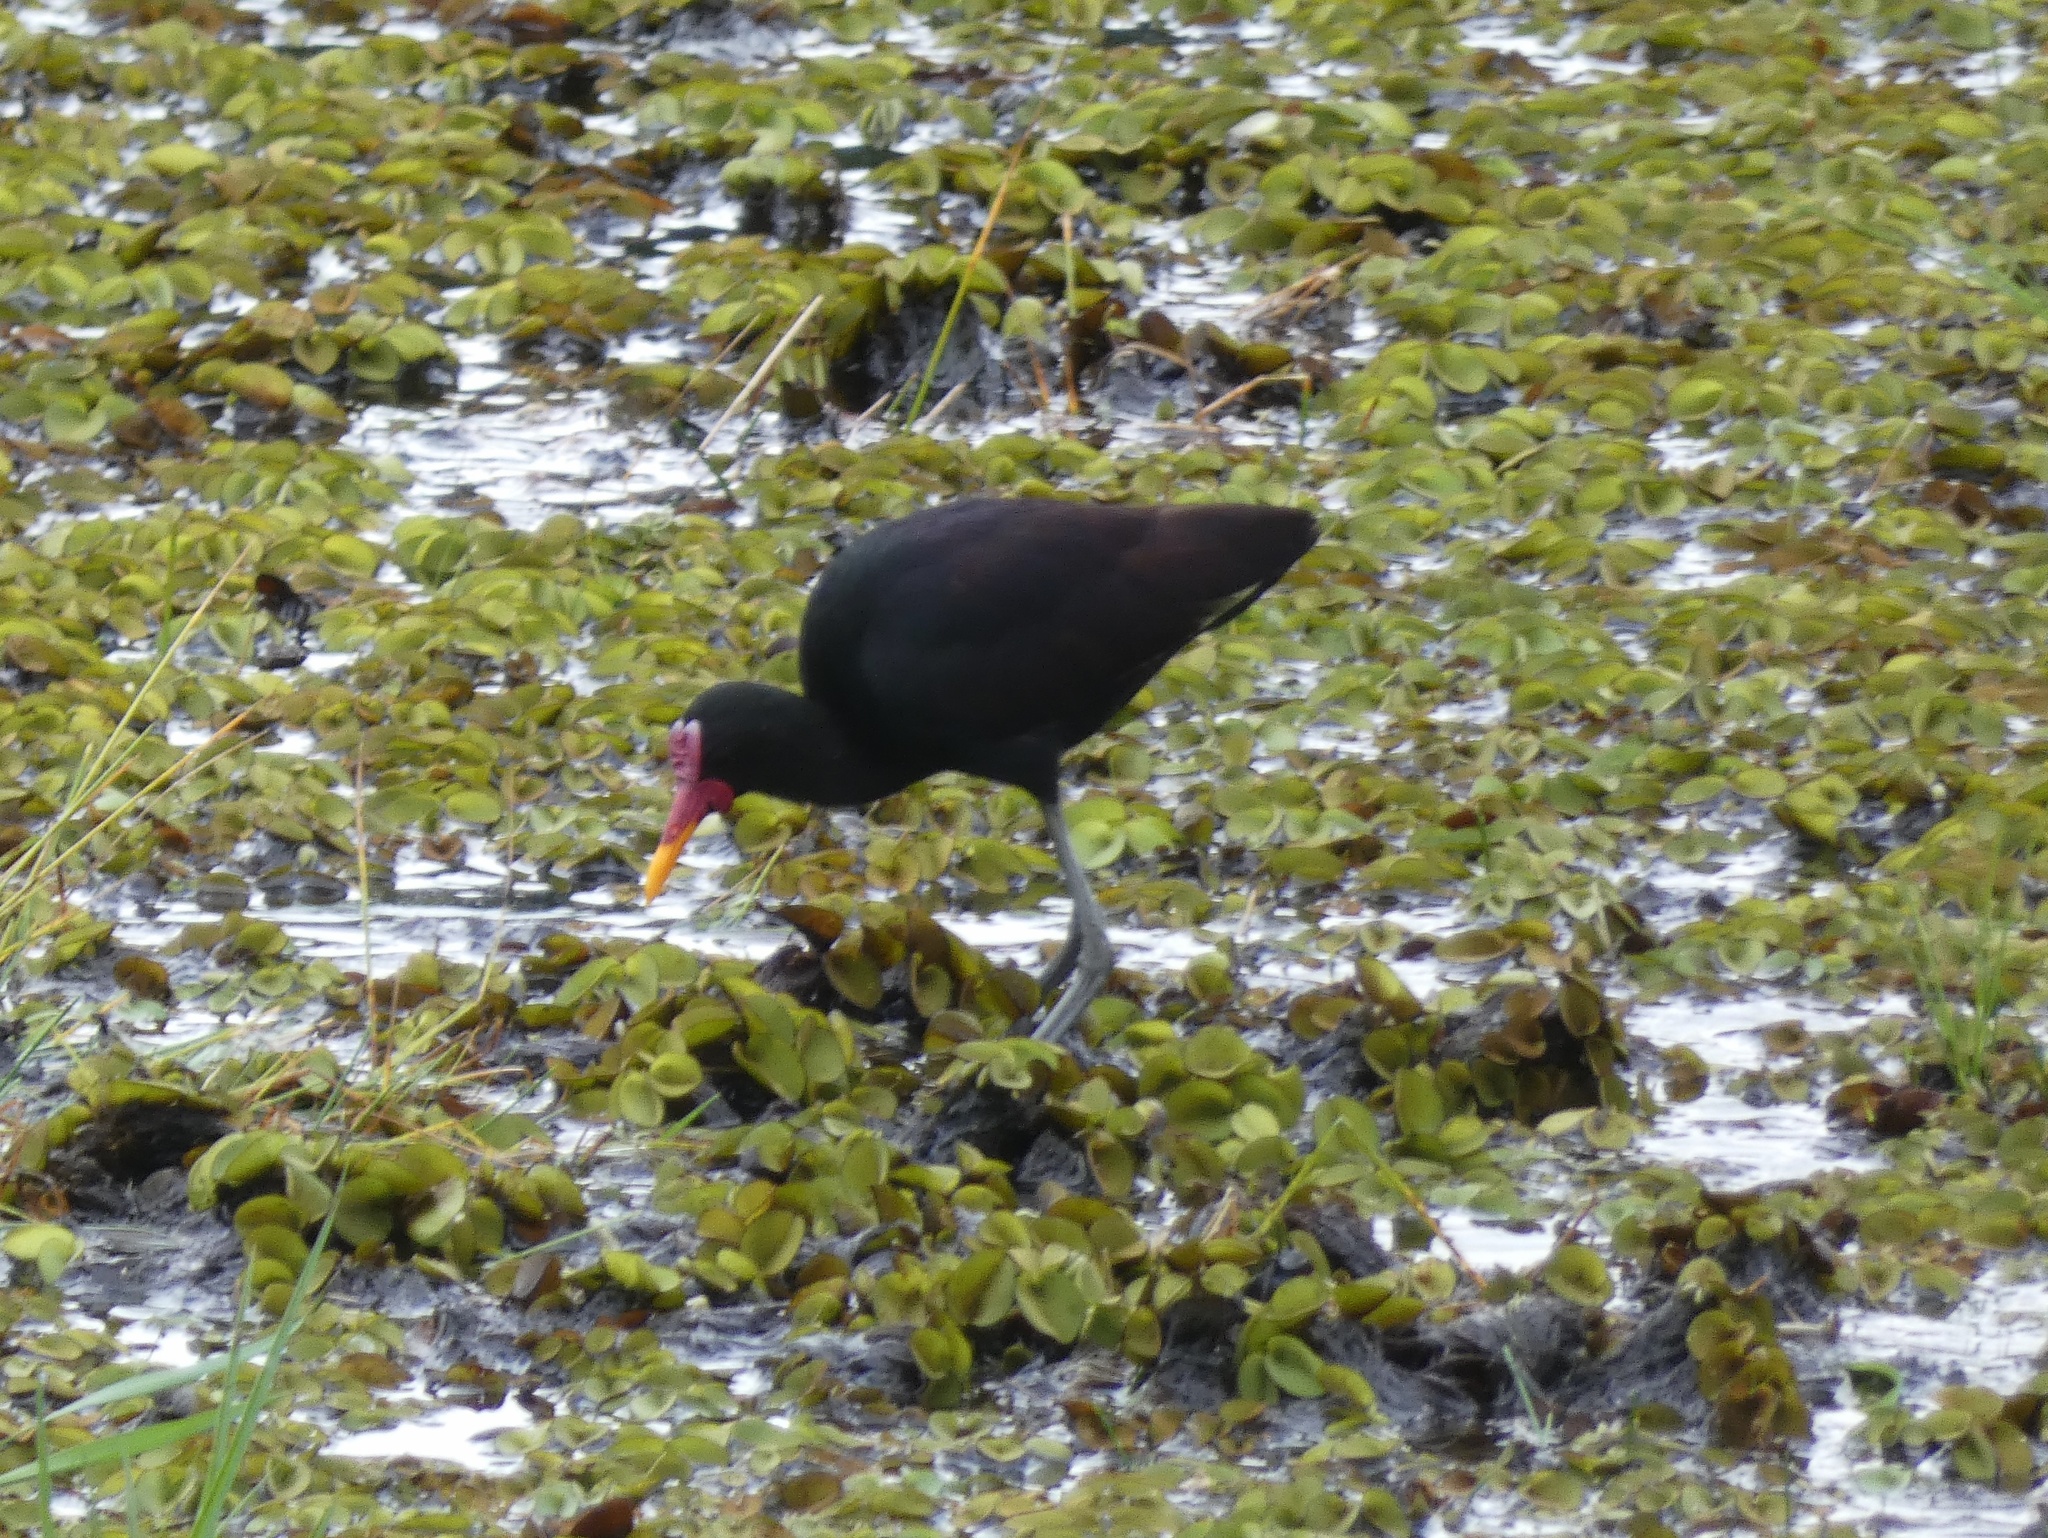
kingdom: Animalia
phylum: Chordata
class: Aves
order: Charadriiformes
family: Jacanidae
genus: Jacana
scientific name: Jacana jacana
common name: Wattled jacana
